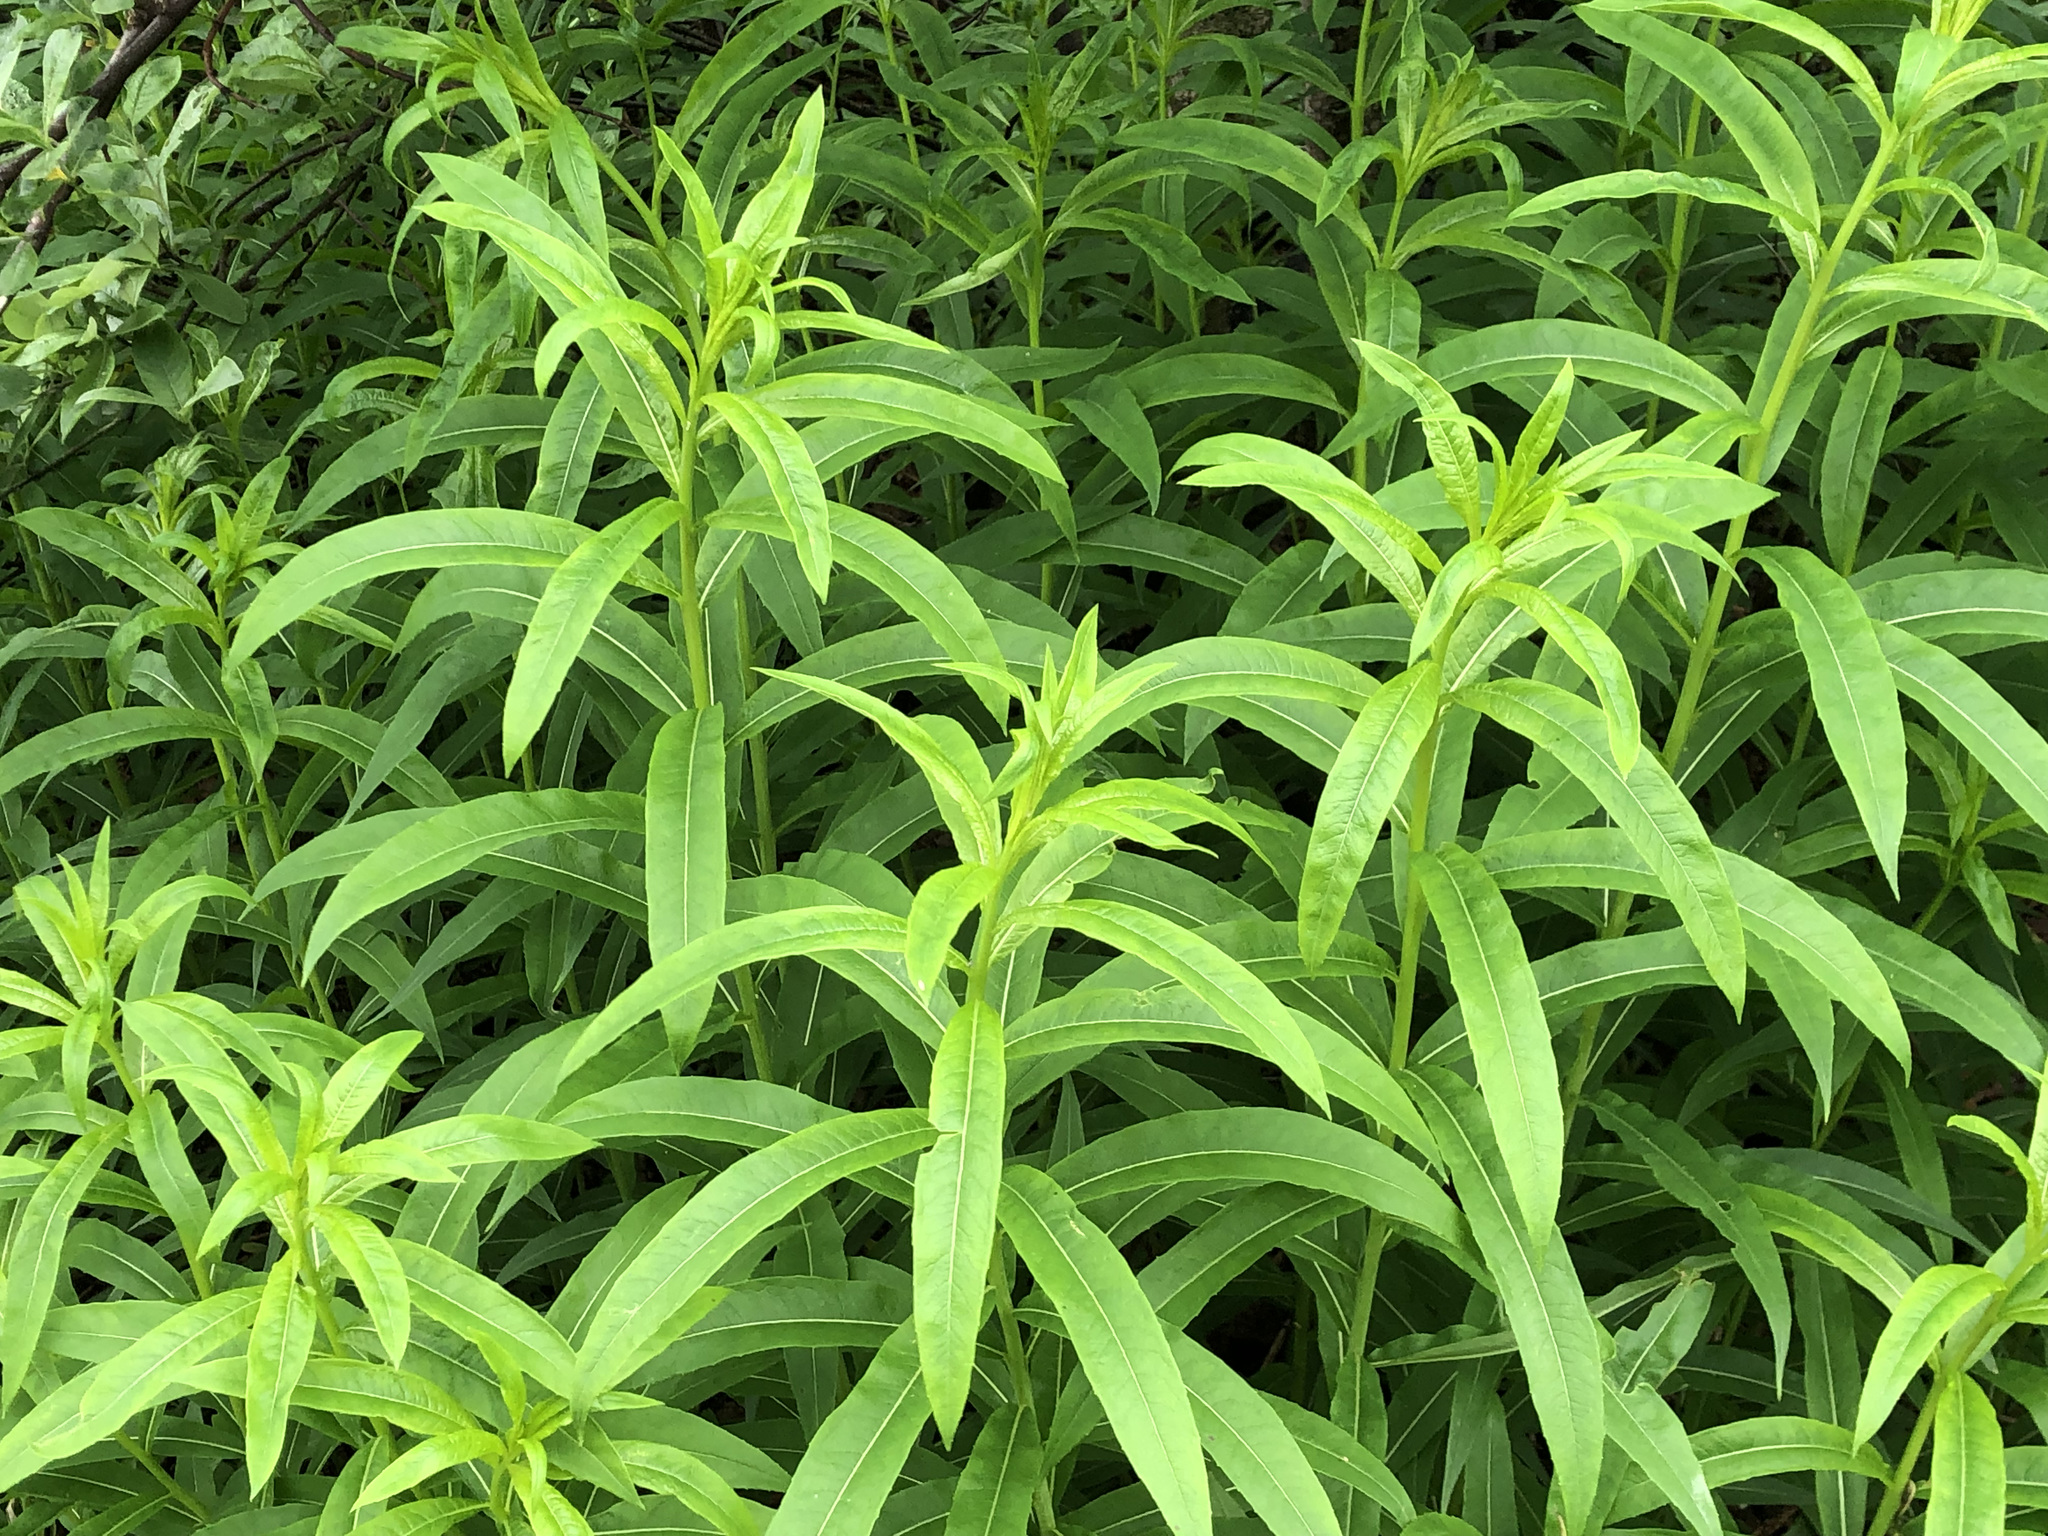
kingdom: Plantae
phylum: Tracheophyta
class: Magnoliopsida
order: Myrtales
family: Onagraceae
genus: Chamaenerion
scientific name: Chamaenerion angustifolium
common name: Fireweed
